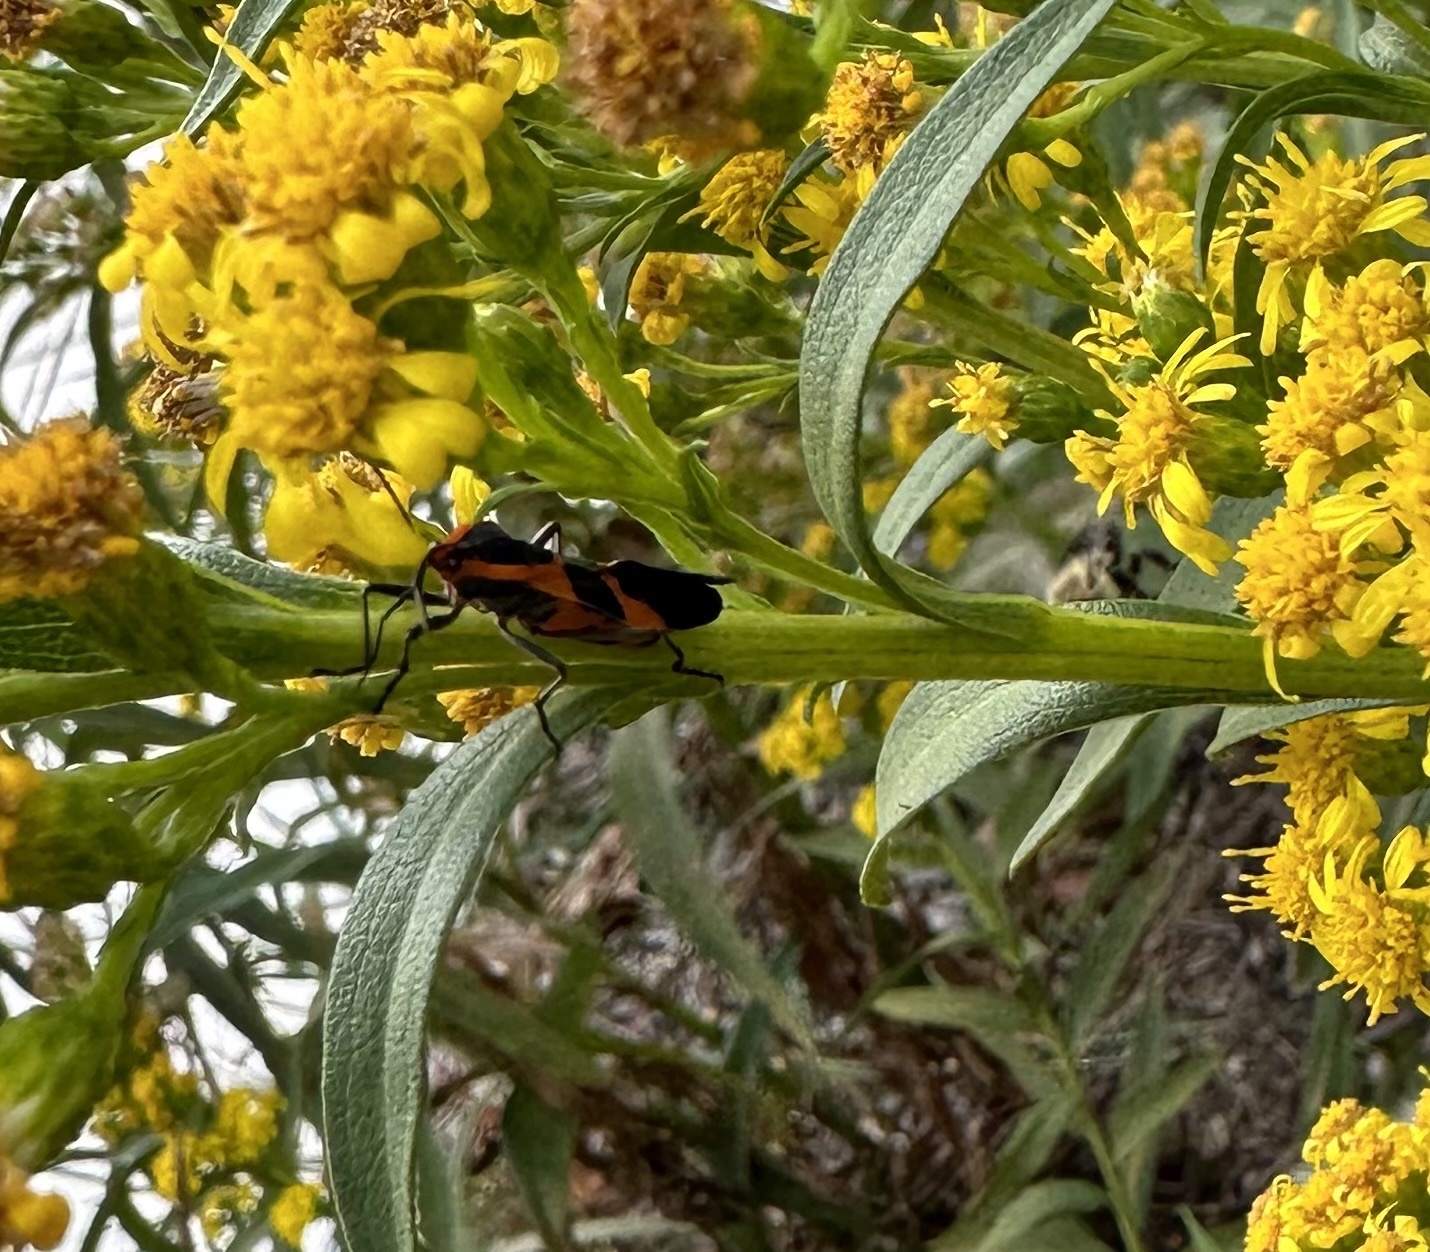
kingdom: Animalia
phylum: Arthropoda
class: Insecta
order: Hemiptera
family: Lygaeidae
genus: Oncopeltus
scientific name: Oncopeltus fasciatus
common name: Large milkweed bug
